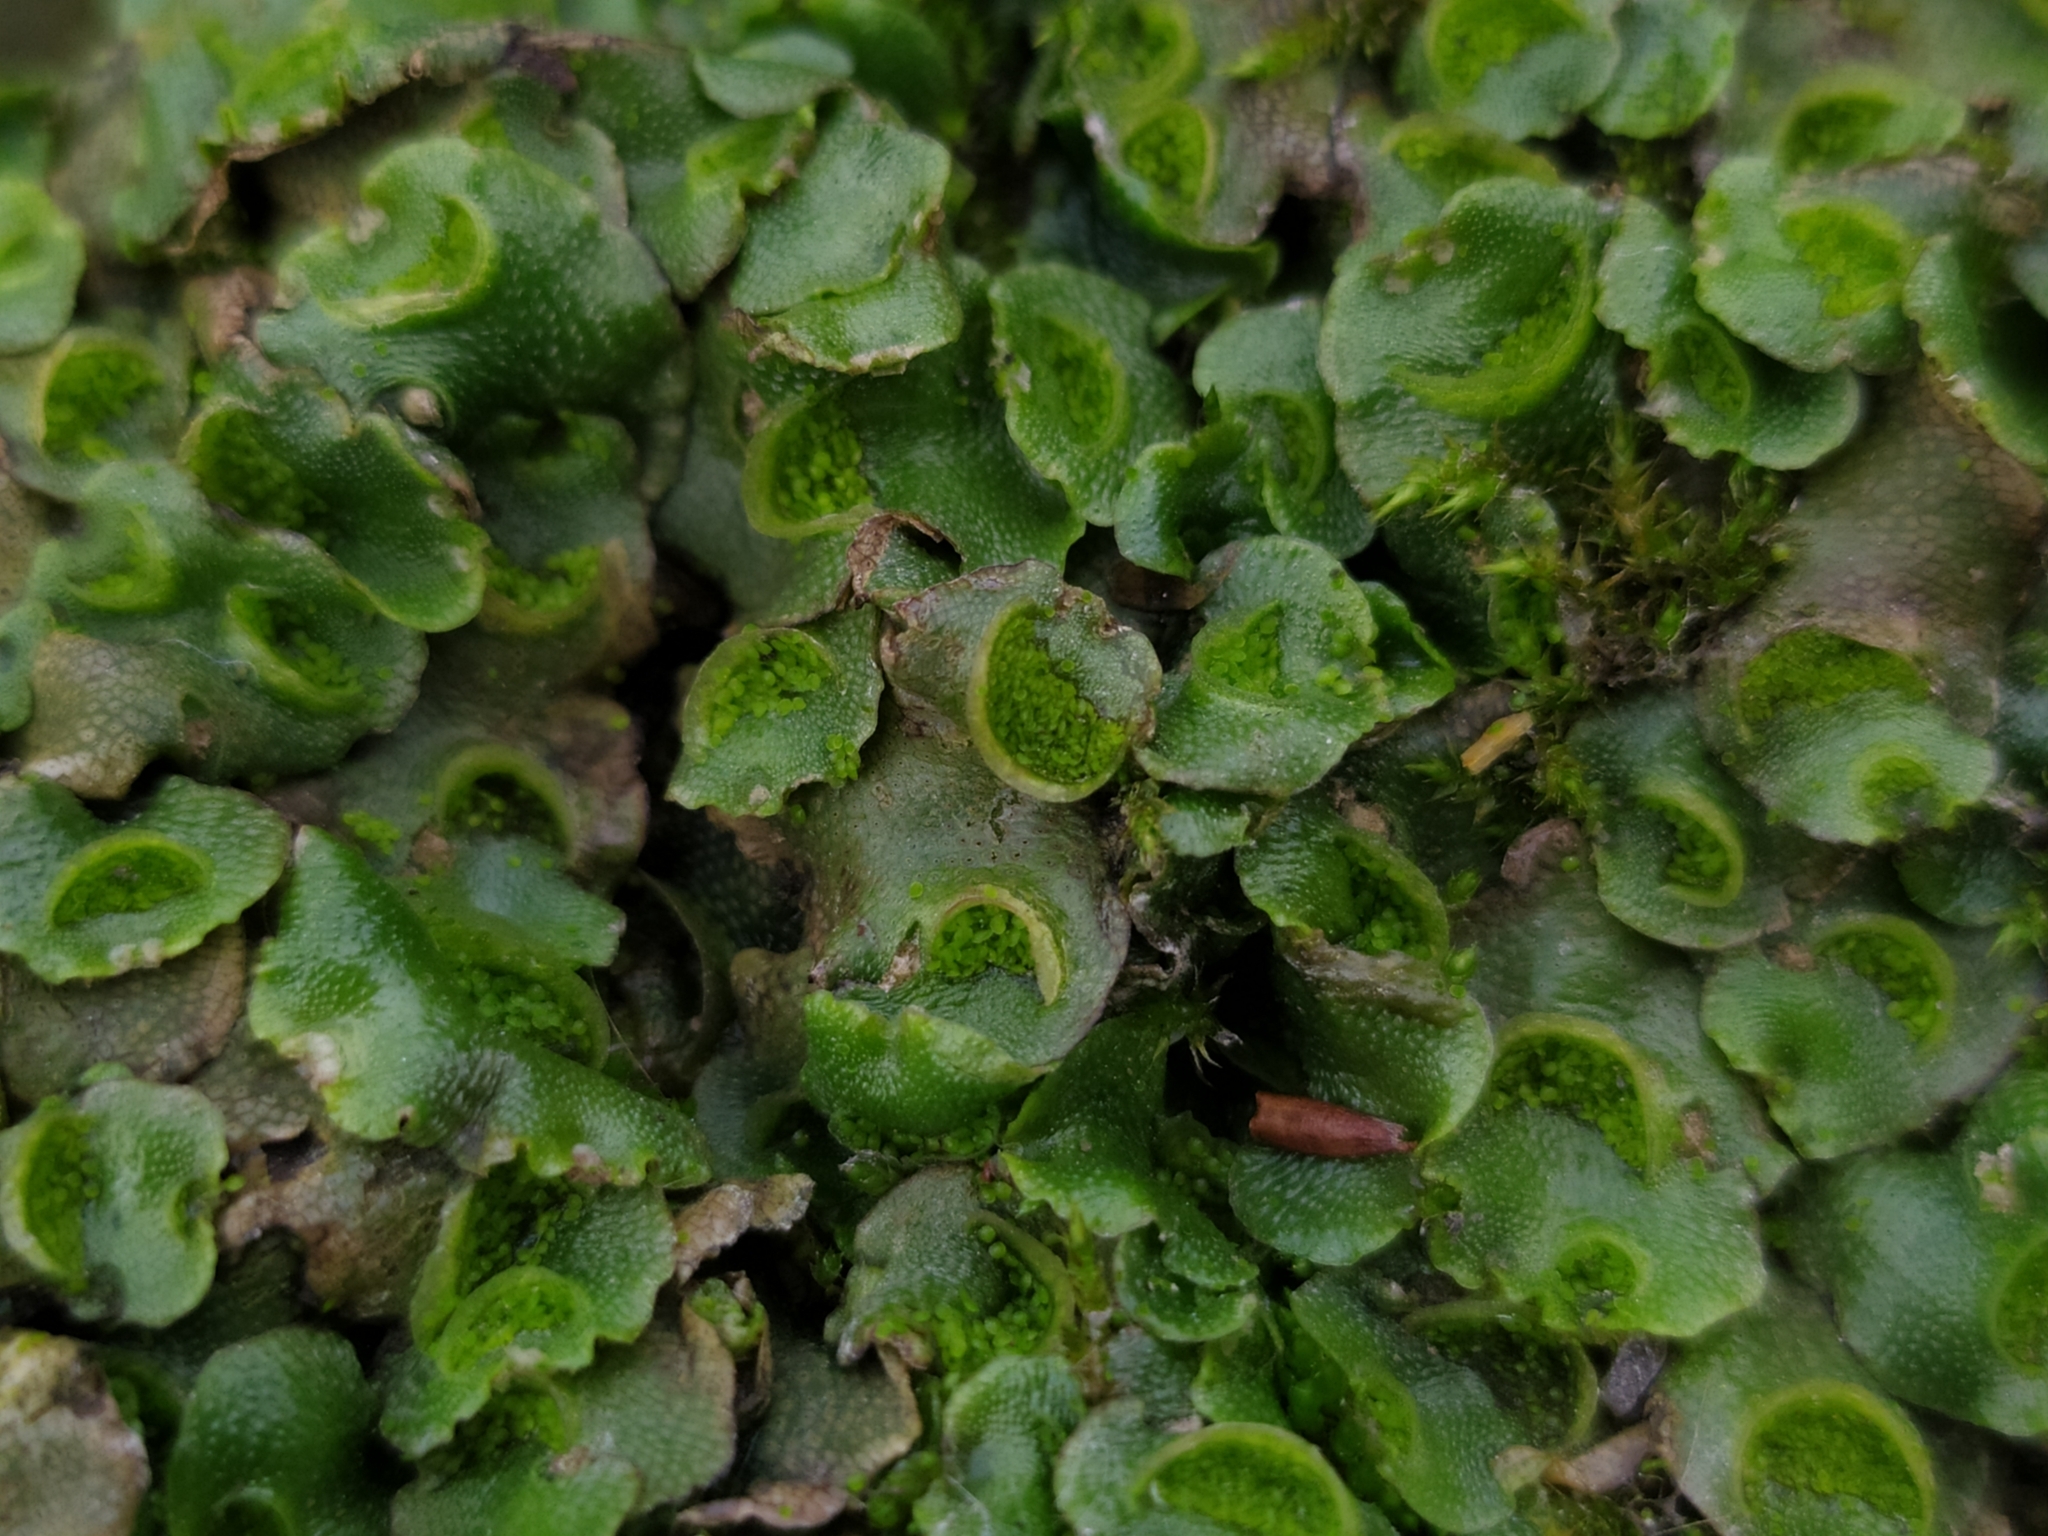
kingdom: Plantae
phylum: Marchantiophyta
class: Marchantiopsida
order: Lunulariales
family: Lunulariaceae
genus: Lunularia
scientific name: Lunularia cruciata
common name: Crescent-cup liverwort
